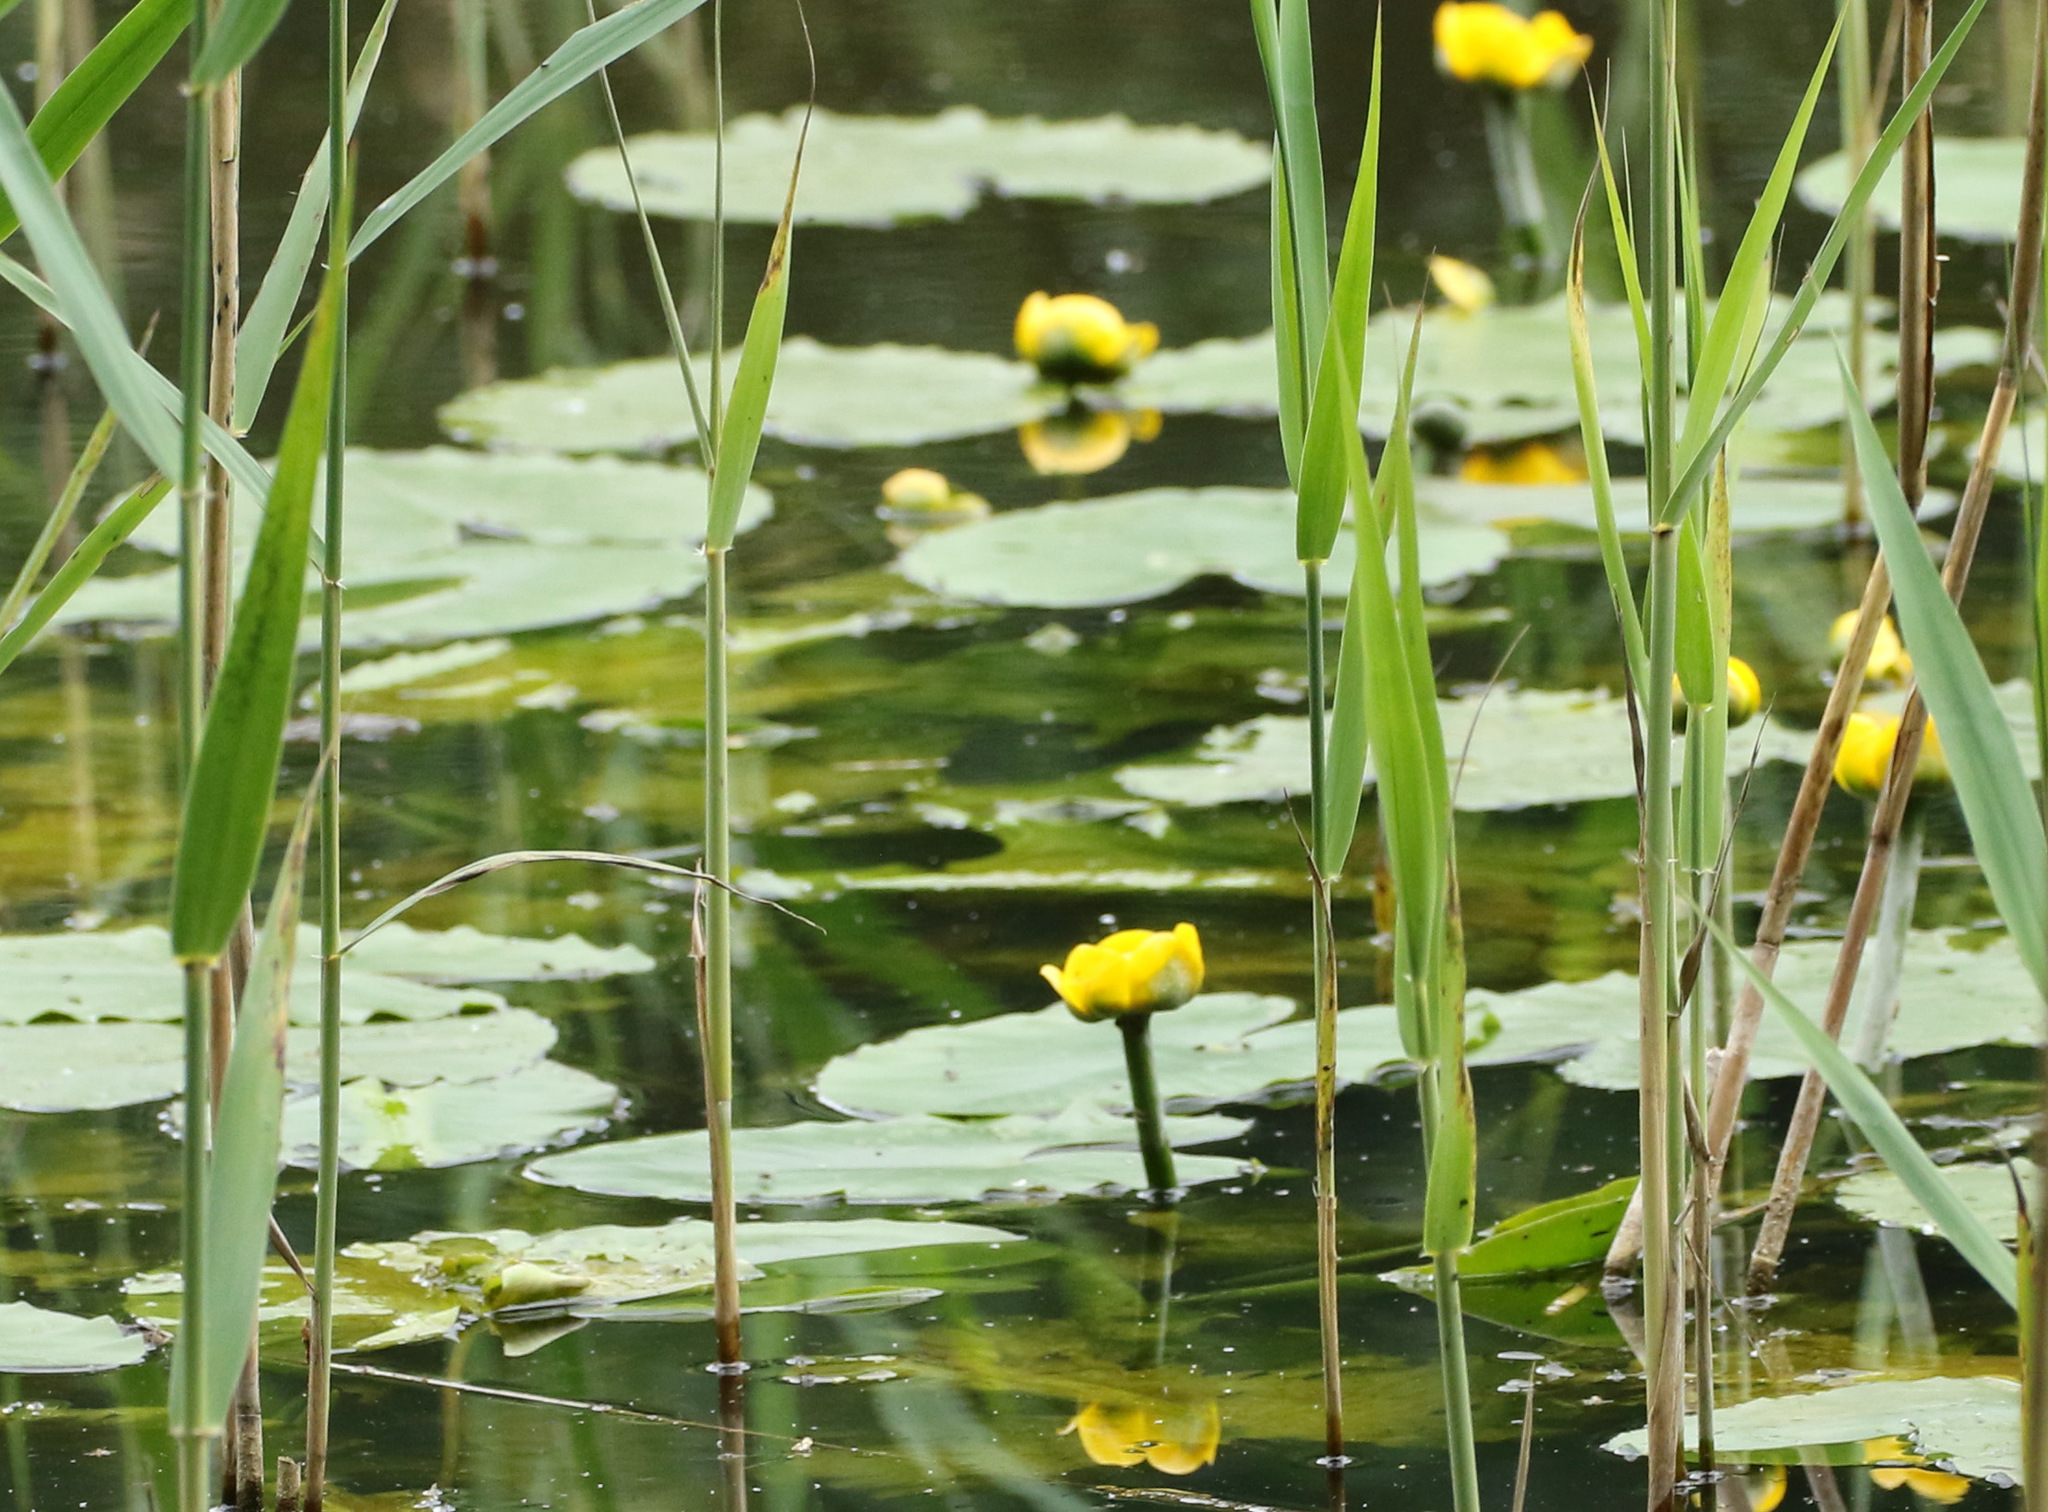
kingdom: Plantae
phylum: Tracheophyta
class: Magnoliopsida
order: Nymphaeales
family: Nymphaeaceae
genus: Nuphar
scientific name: Nuphar lutea
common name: Yellow water-lily
